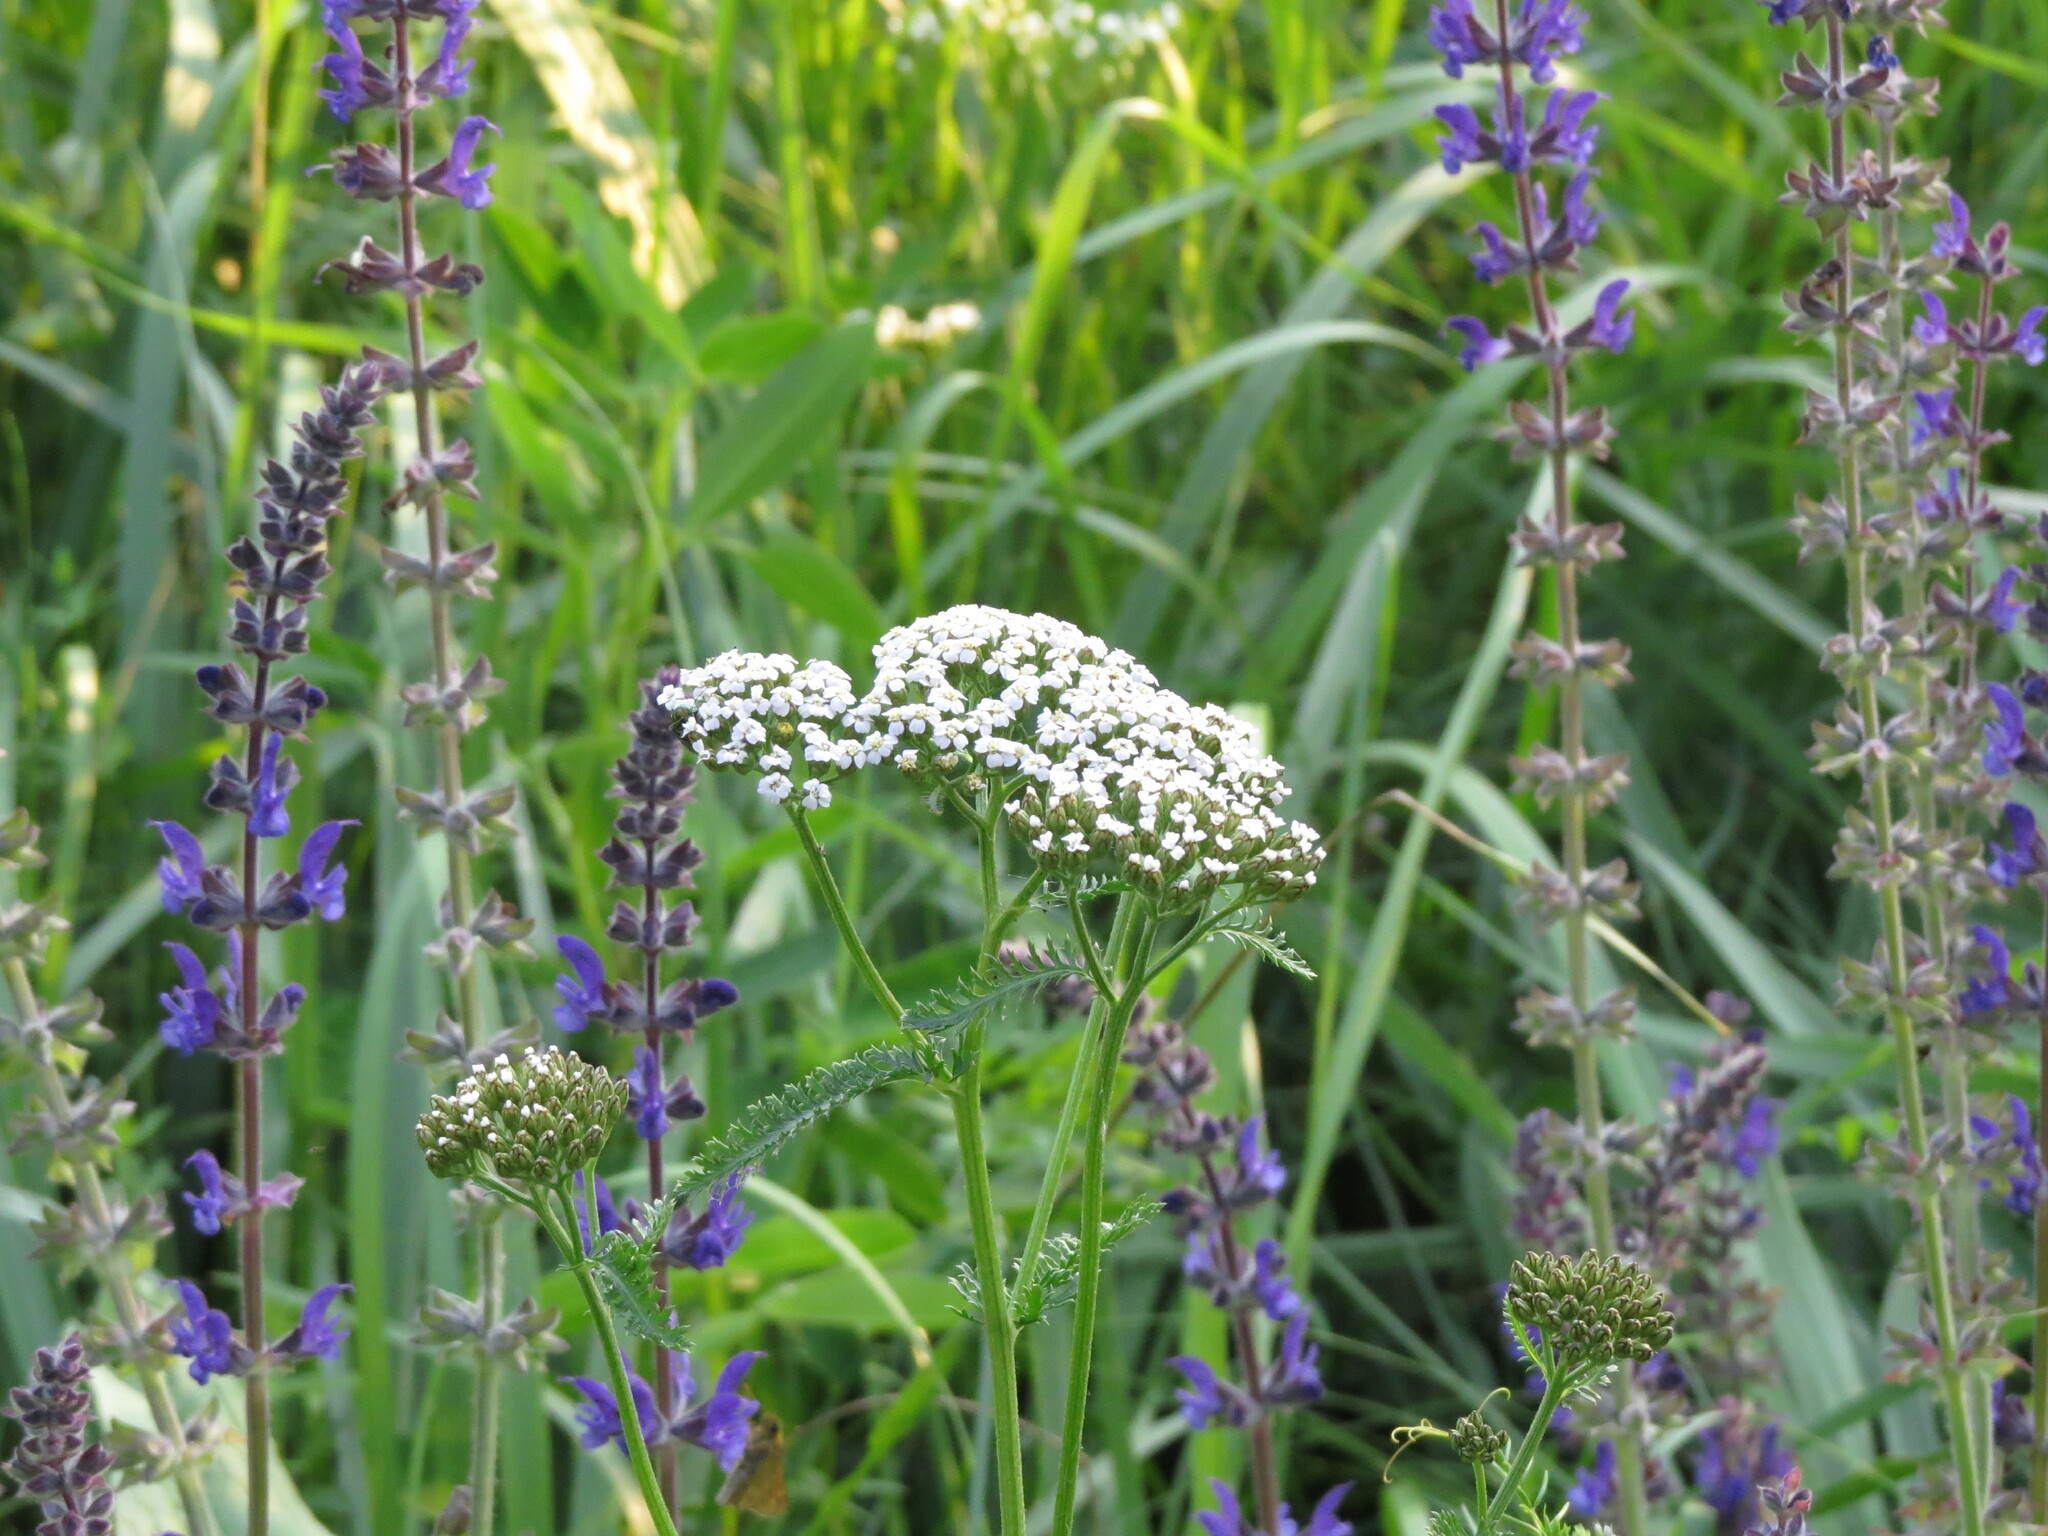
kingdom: Plantae
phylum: Tracheophyta
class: Magnoliopsida
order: Asterales
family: Asteraceae
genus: Achillea
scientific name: Achillea millefolium
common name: Yarrow
